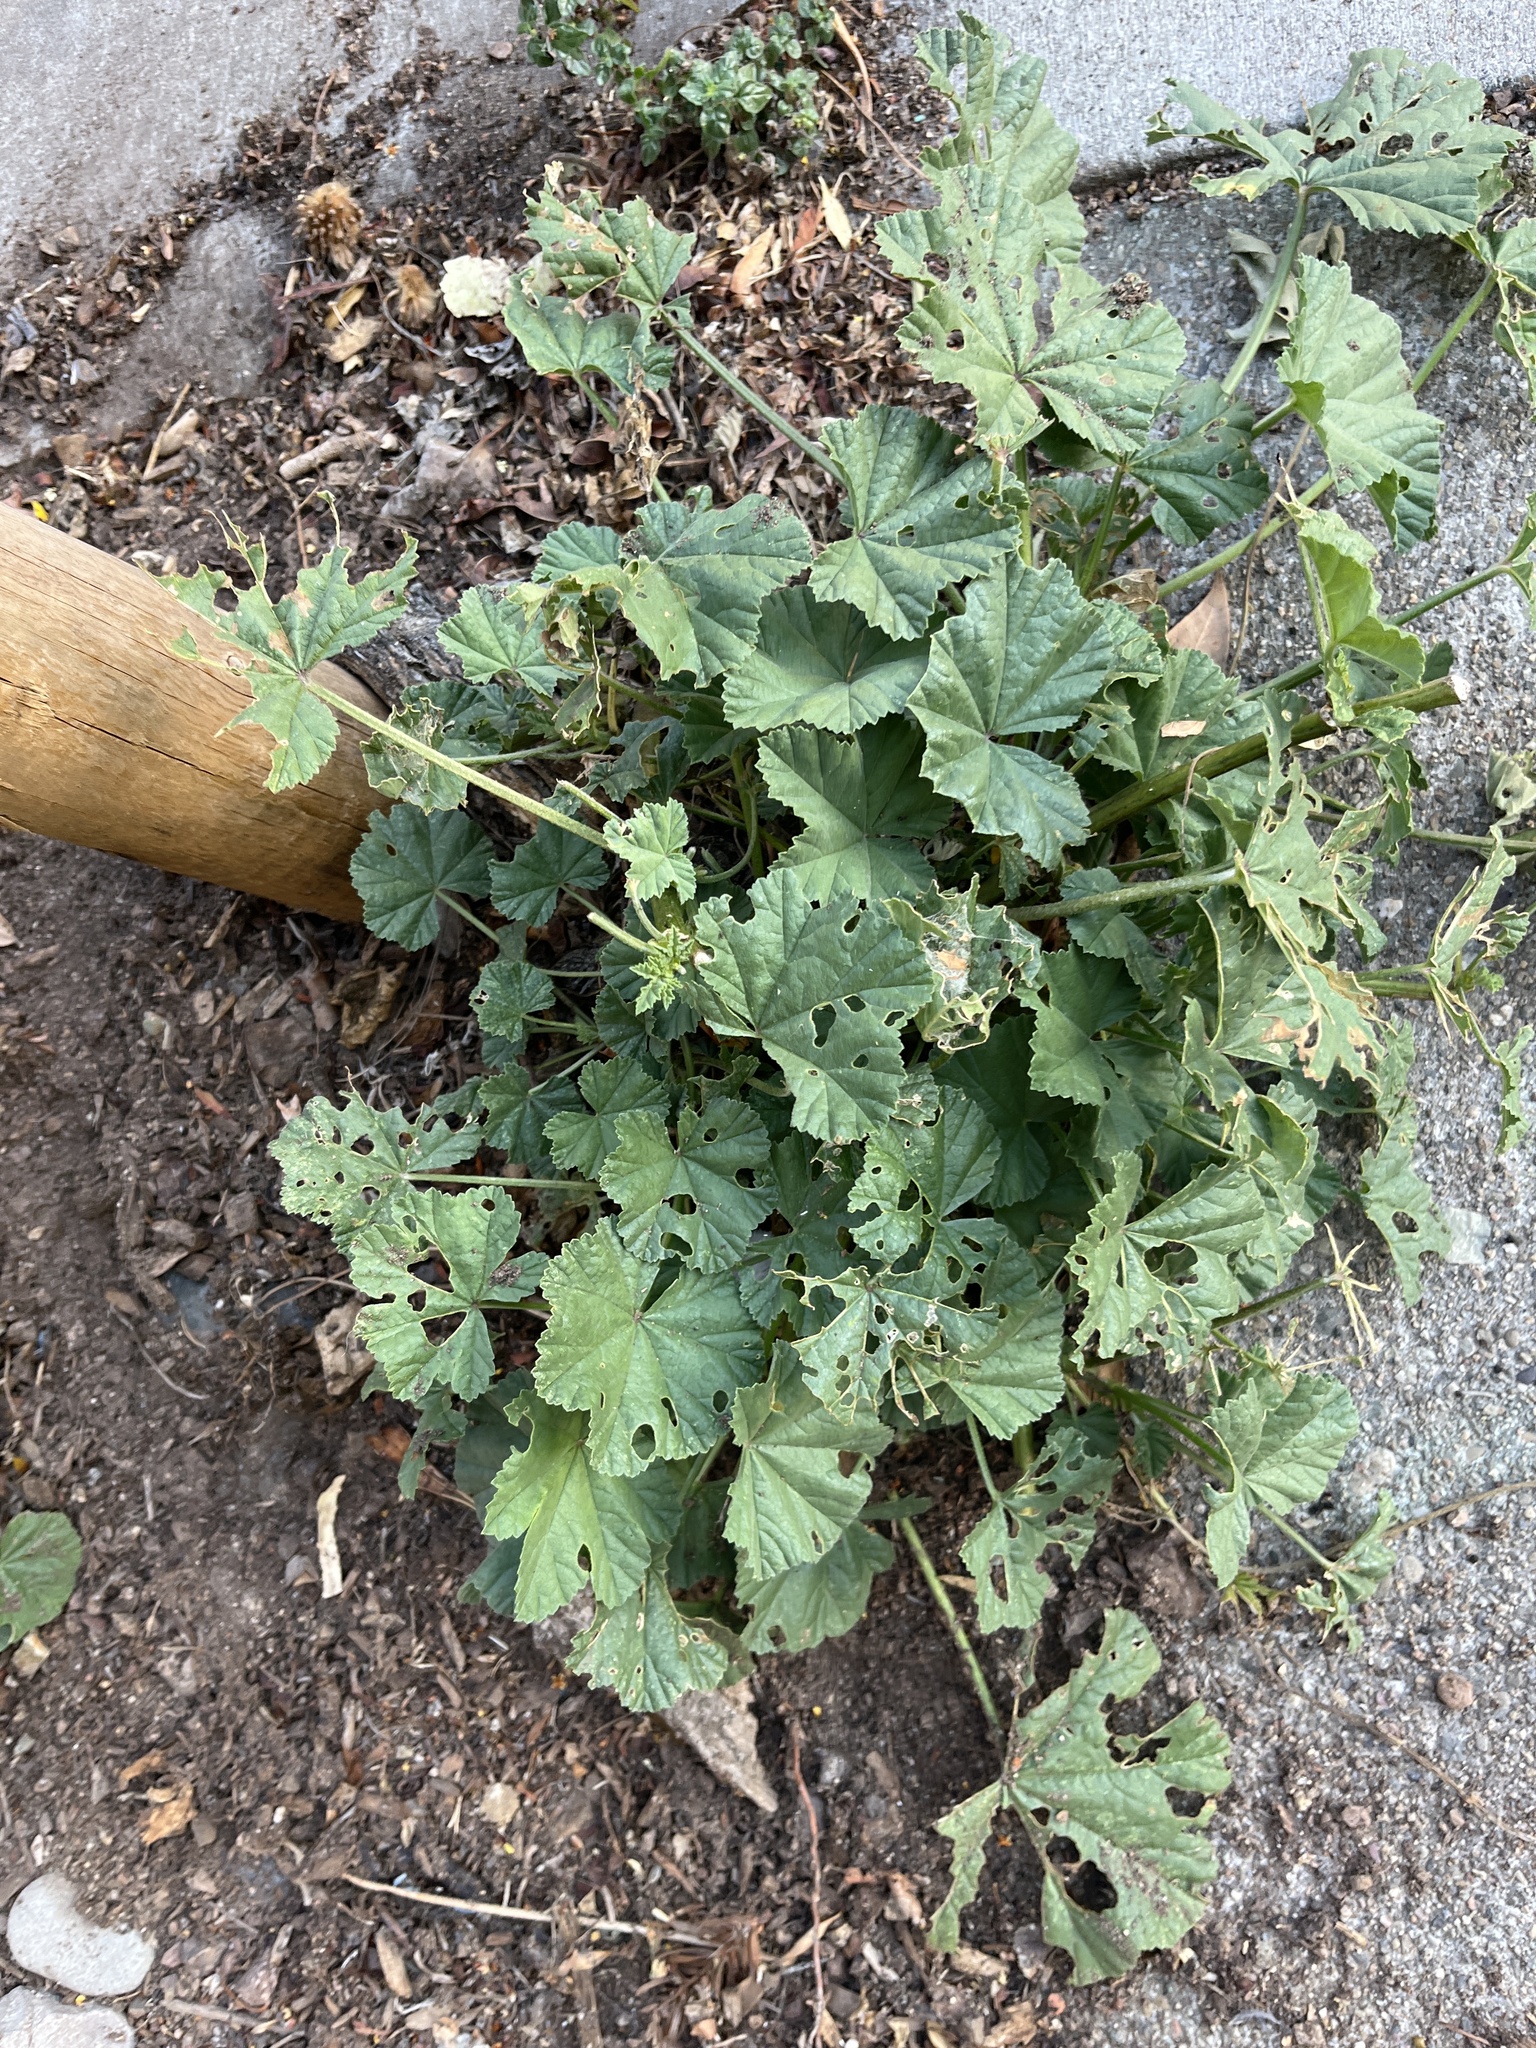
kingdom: Plantae
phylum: Tracheophyta
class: Magnoliopsida
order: Malvales
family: Malvaceae
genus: Malva
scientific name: Malva
